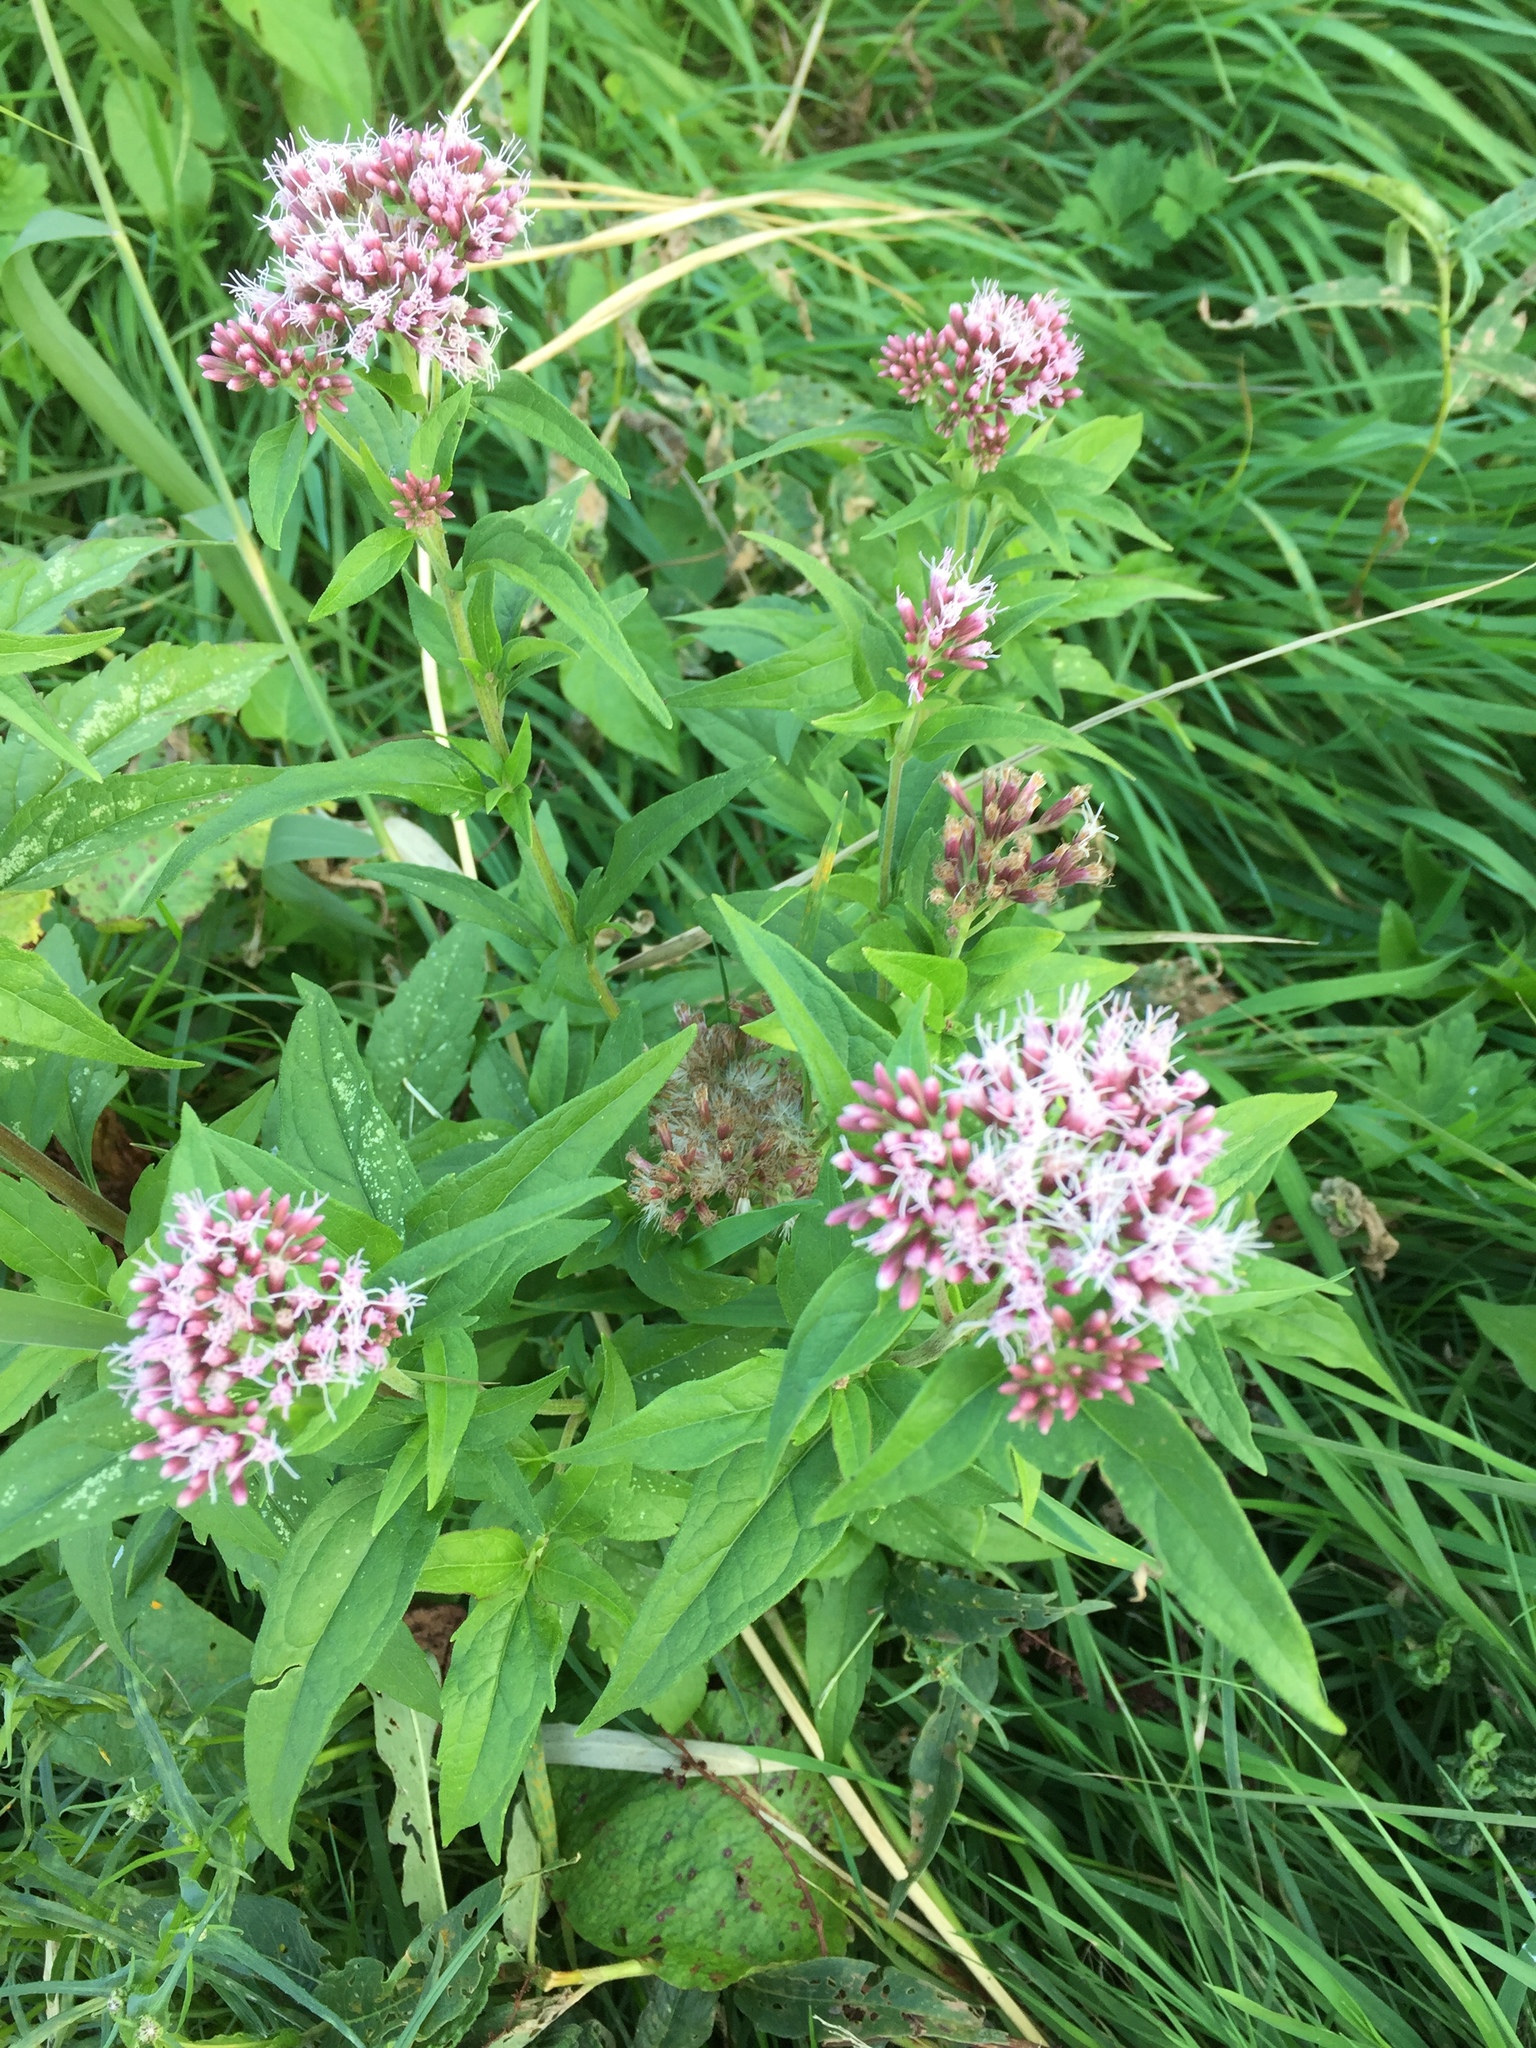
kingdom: Plantae
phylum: Tracheophyta
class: Magnoliopsida
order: Asterales
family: Asteraceae
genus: Eupatorium
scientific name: Eupatorium cannabinum
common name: Hemp-agrimony
